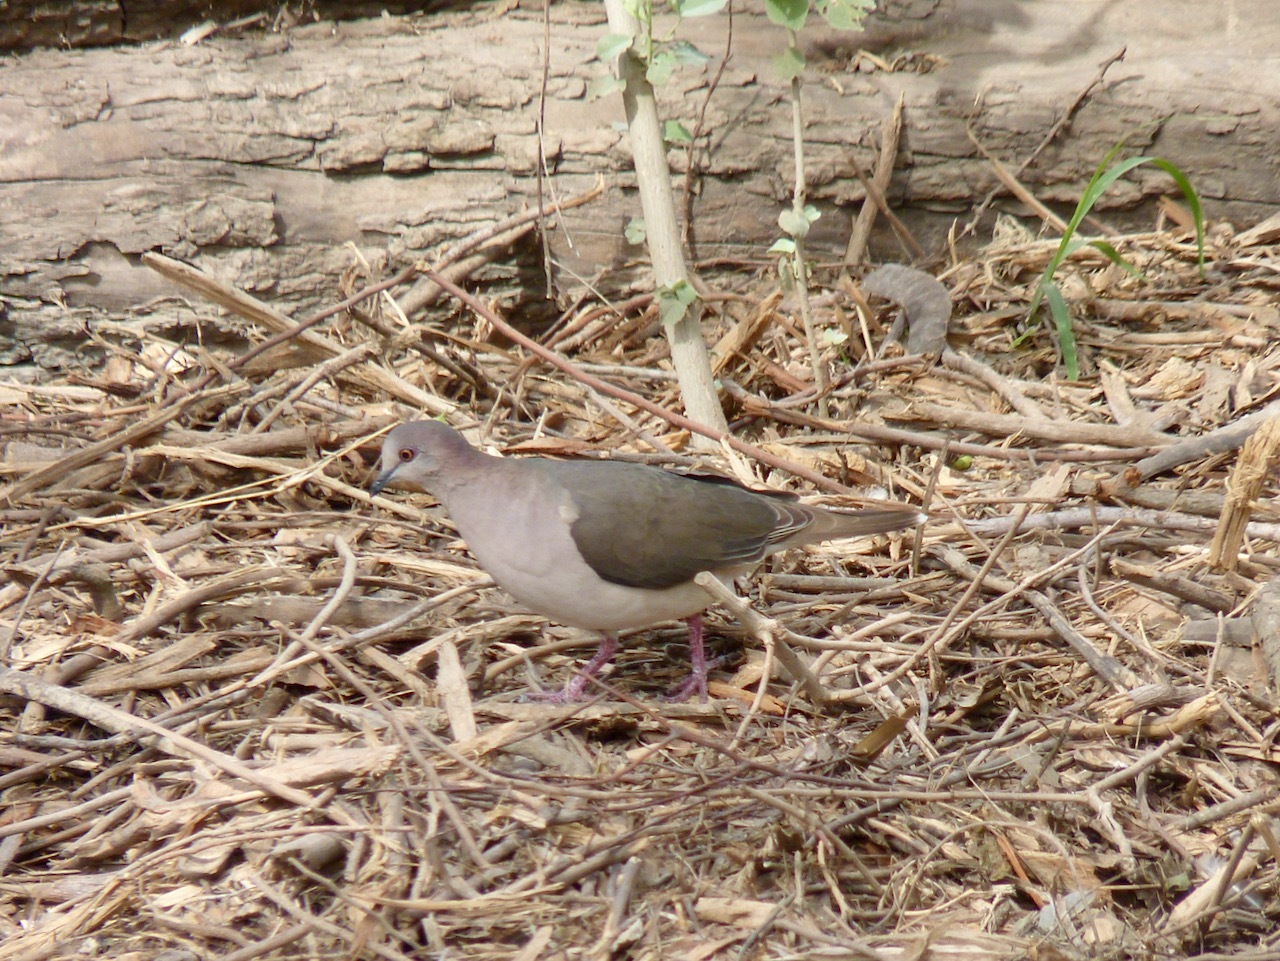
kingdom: Animalia
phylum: Chordata
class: Aves
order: Columbiformes
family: Columbidae
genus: Leptotila
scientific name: Leptotila verreauxi
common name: White-tipped dove
